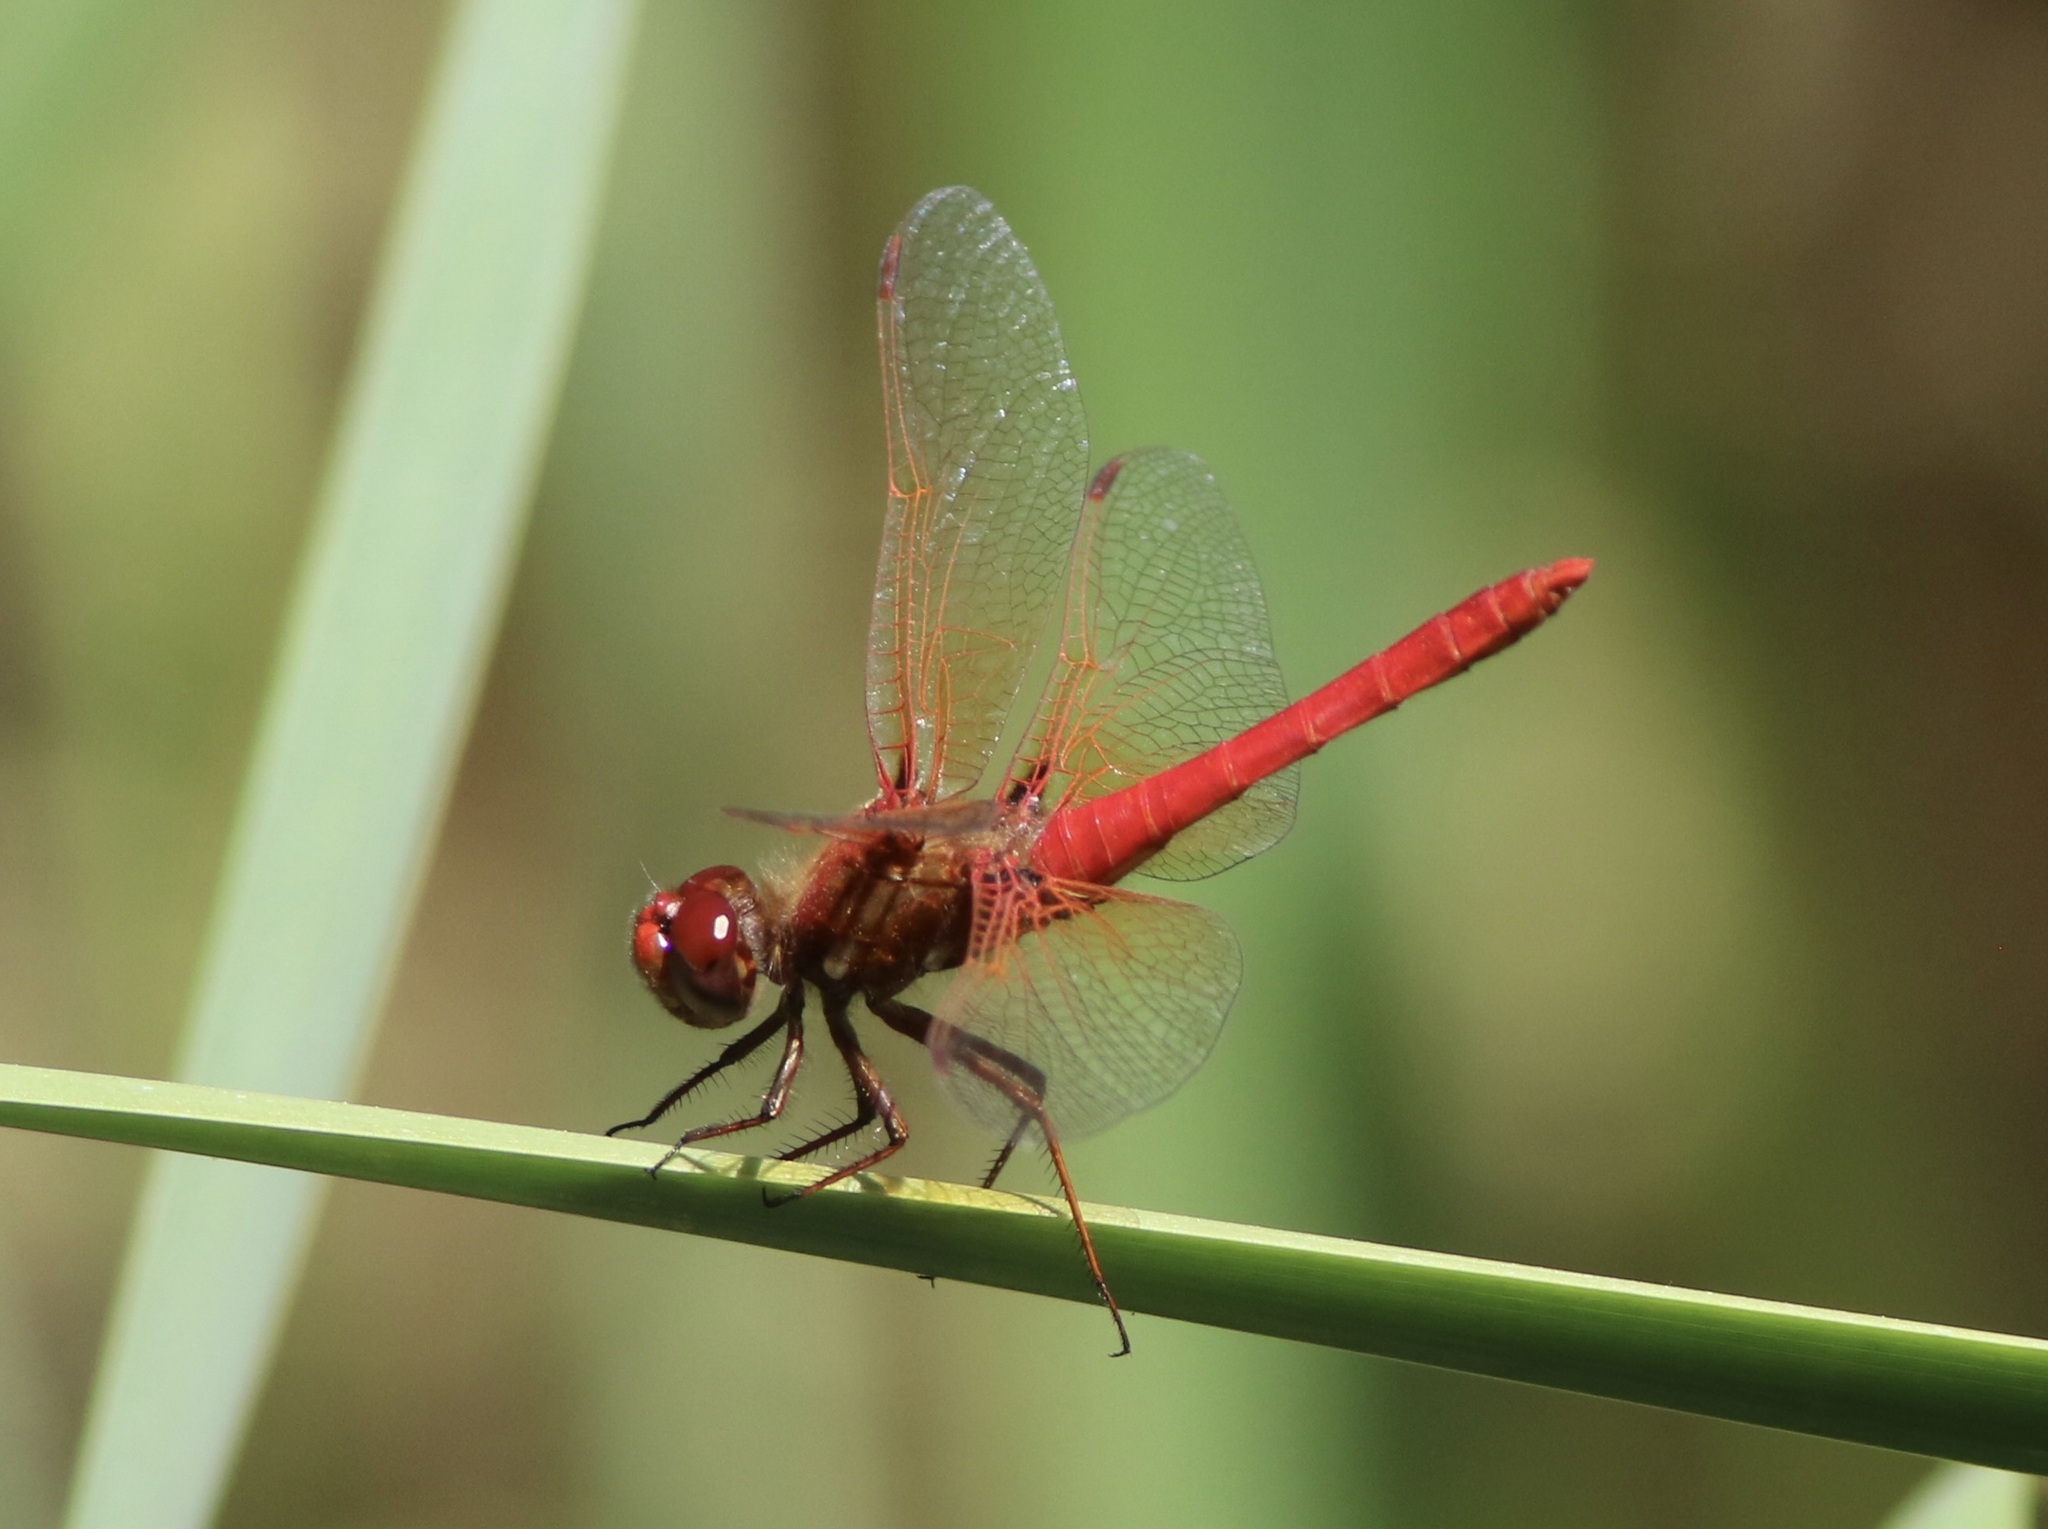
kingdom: Animalia
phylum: Arthropoda
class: Insecta
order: Odonata
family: Libellulidae
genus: Sympetrum
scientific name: Sympetrum illotum
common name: Cardinal meadowhawk
